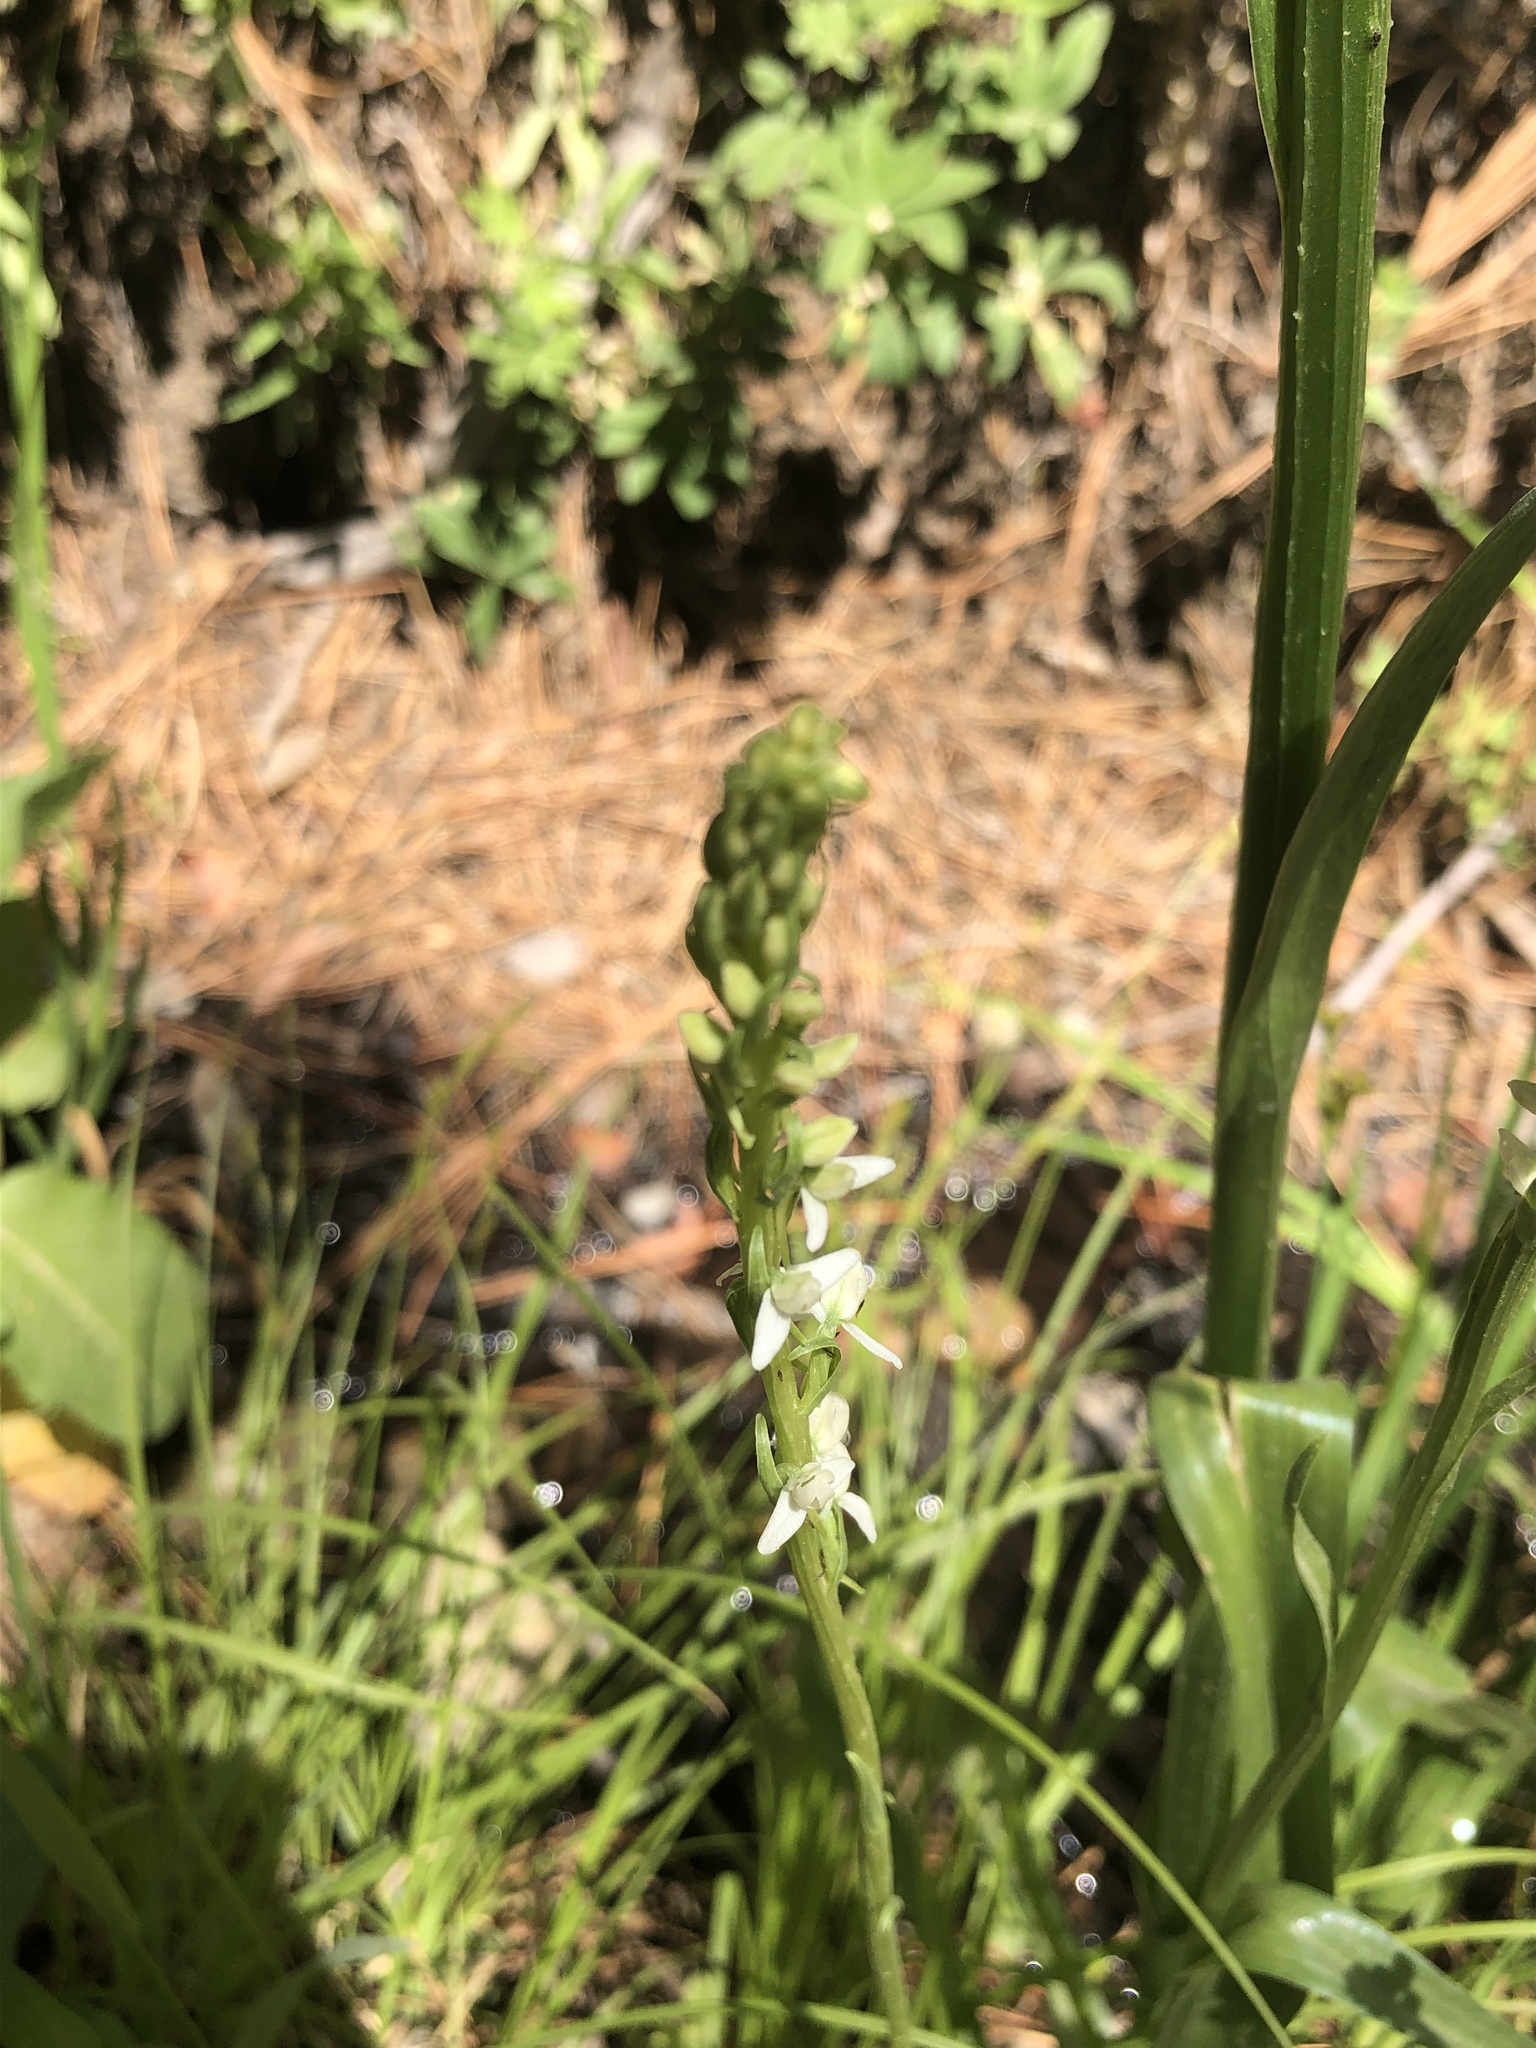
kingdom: Plantae
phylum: Tracheophyta
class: Liliopsida
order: Asparagales
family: Orchidaceae
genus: Platanthera
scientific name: Platanthera dilatata
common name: Bog candles
